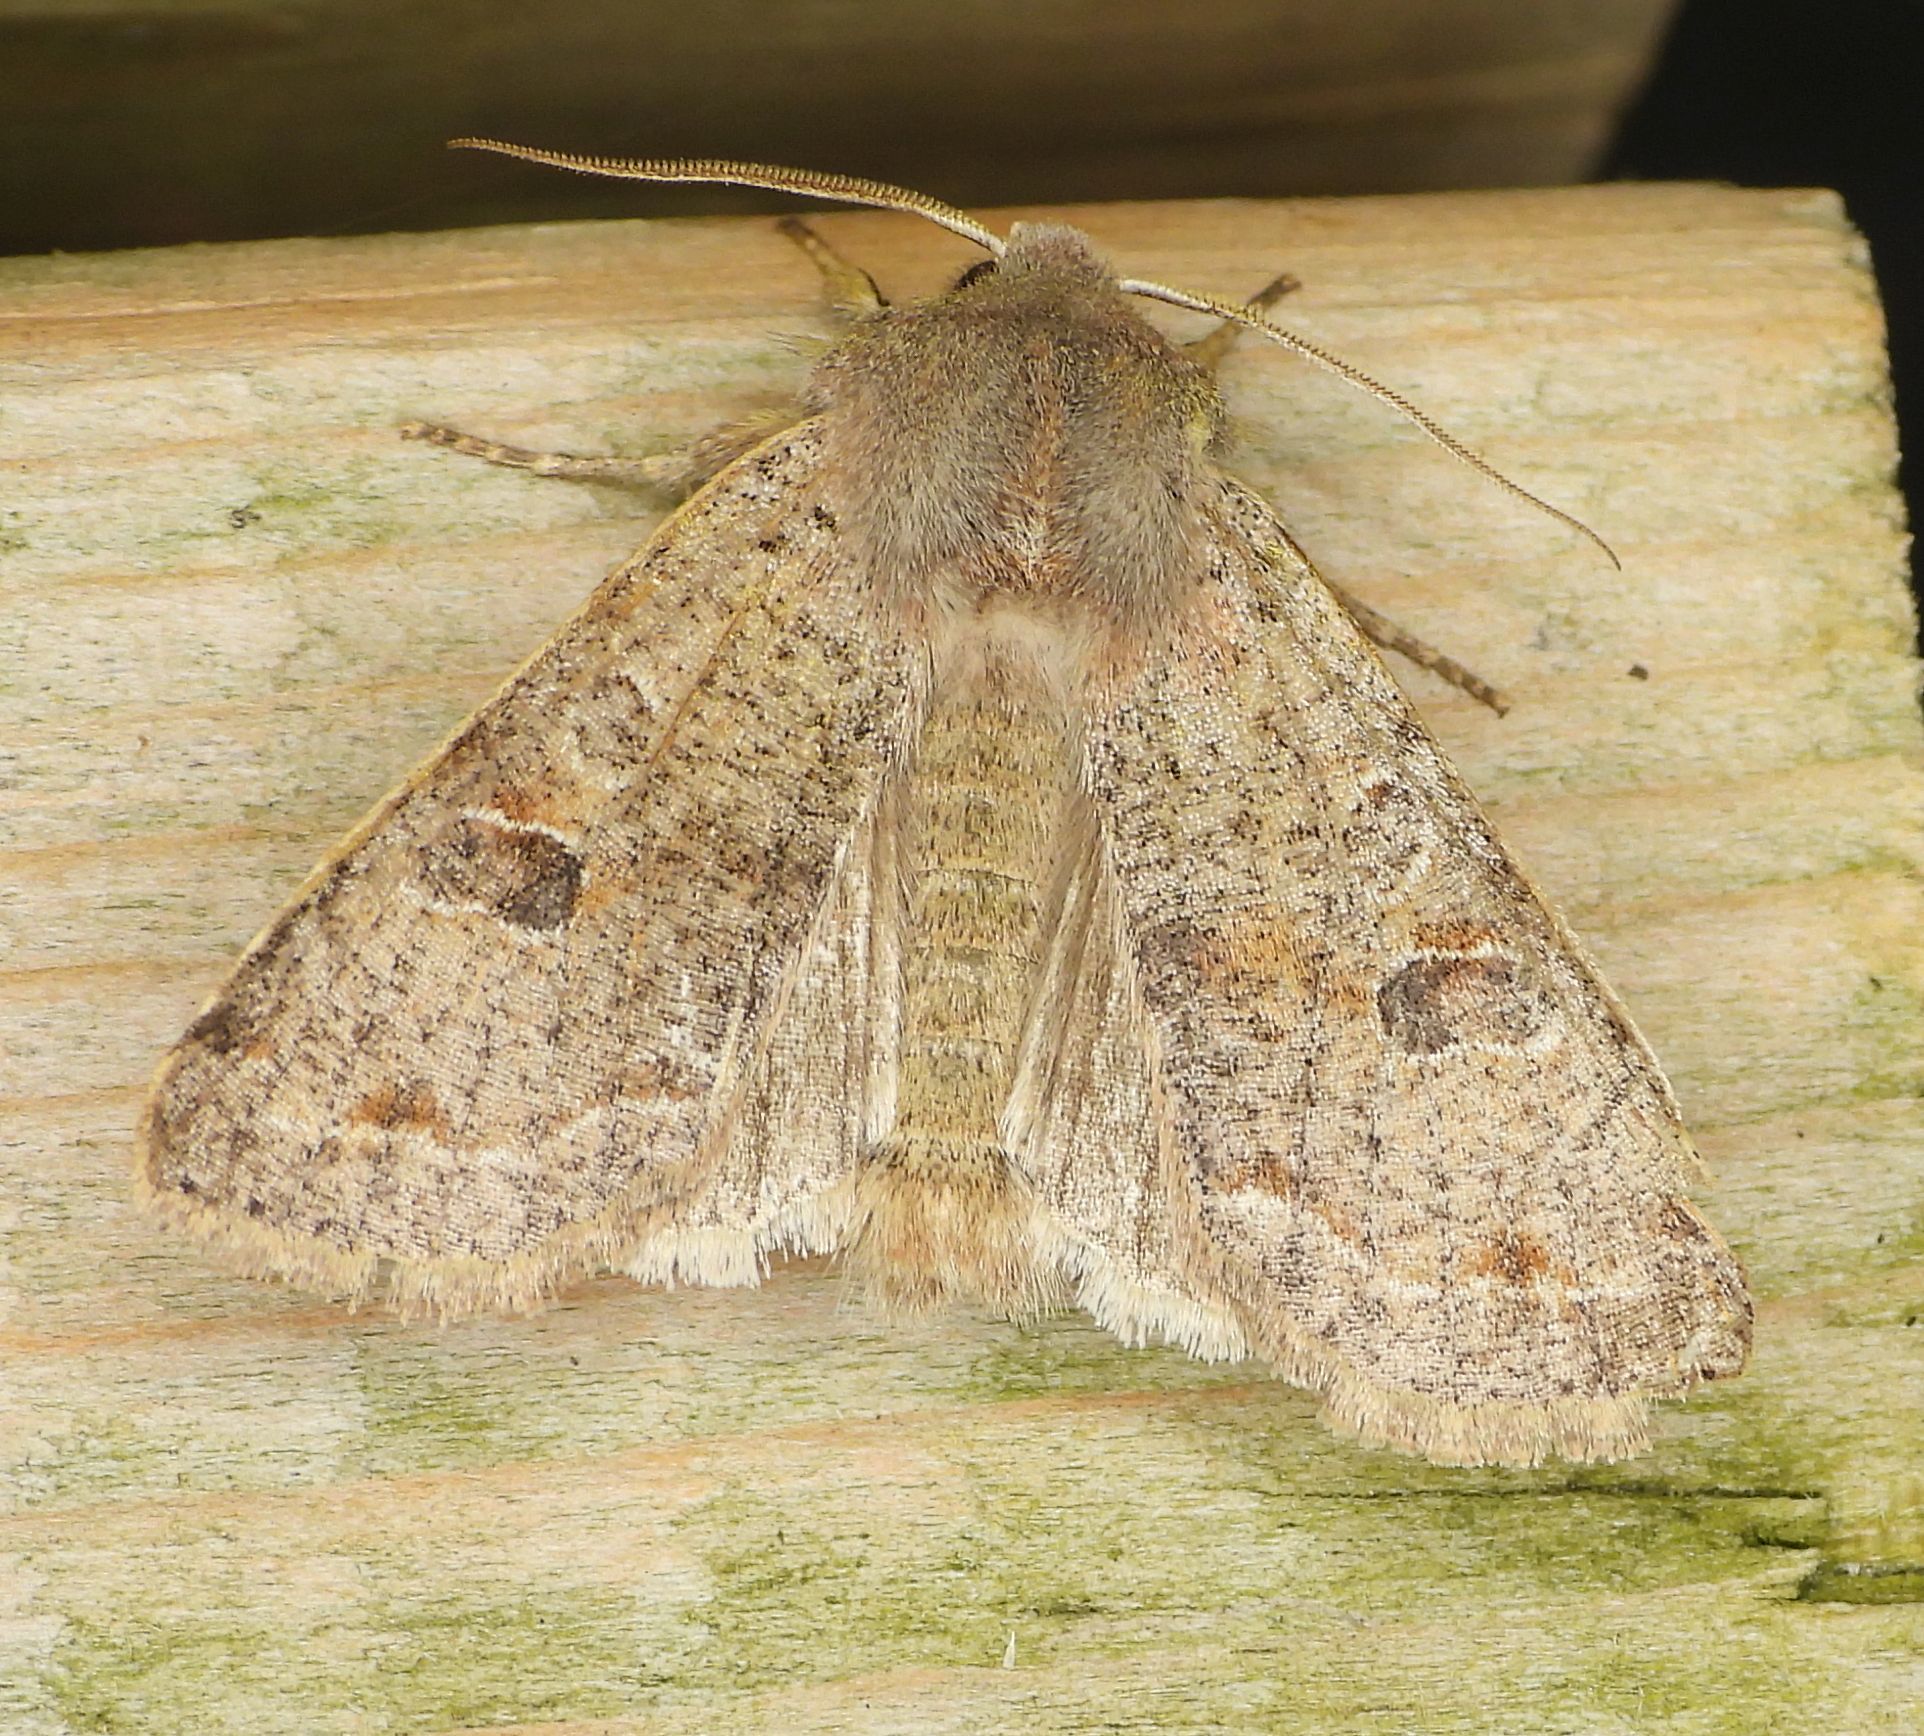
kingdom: Animalia
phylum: Arthropoda
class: Insecta
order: Lepidoptera
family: Noctuidae
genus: Orthosia
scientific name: Orthosia hibisci
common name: Green fruitworm
